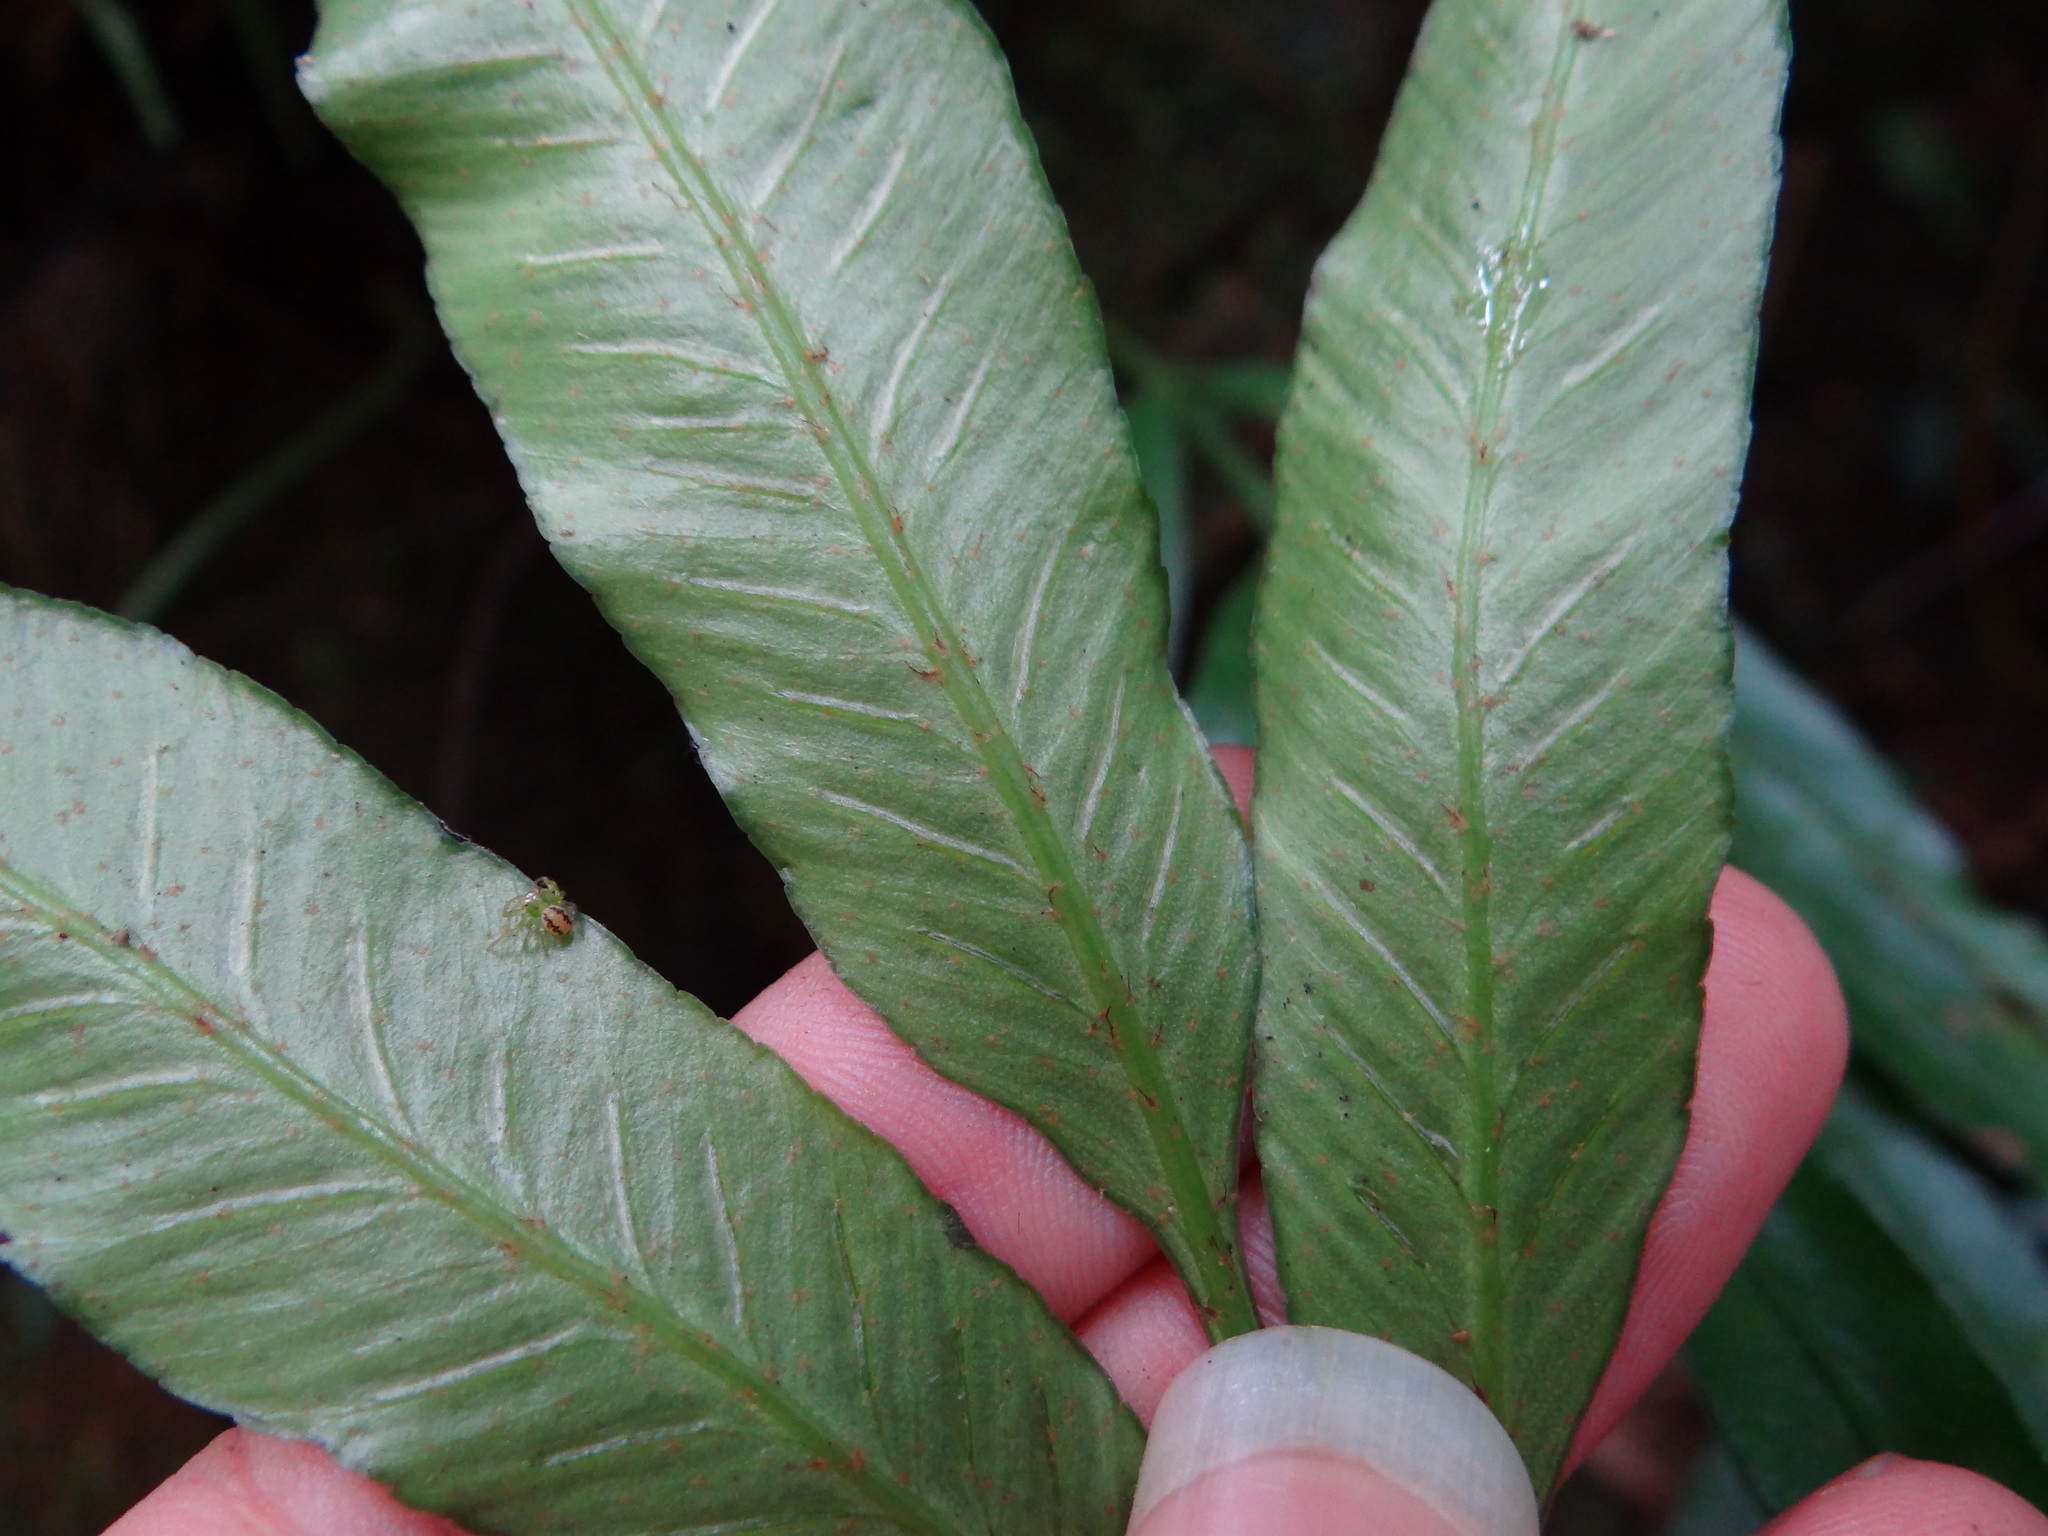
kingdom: Plantae
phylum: Tracheophyta
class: Polypodiopsida
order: Polypodiales
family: Aspleniaceae
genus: Asplenium
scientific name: Asplenium formosae
